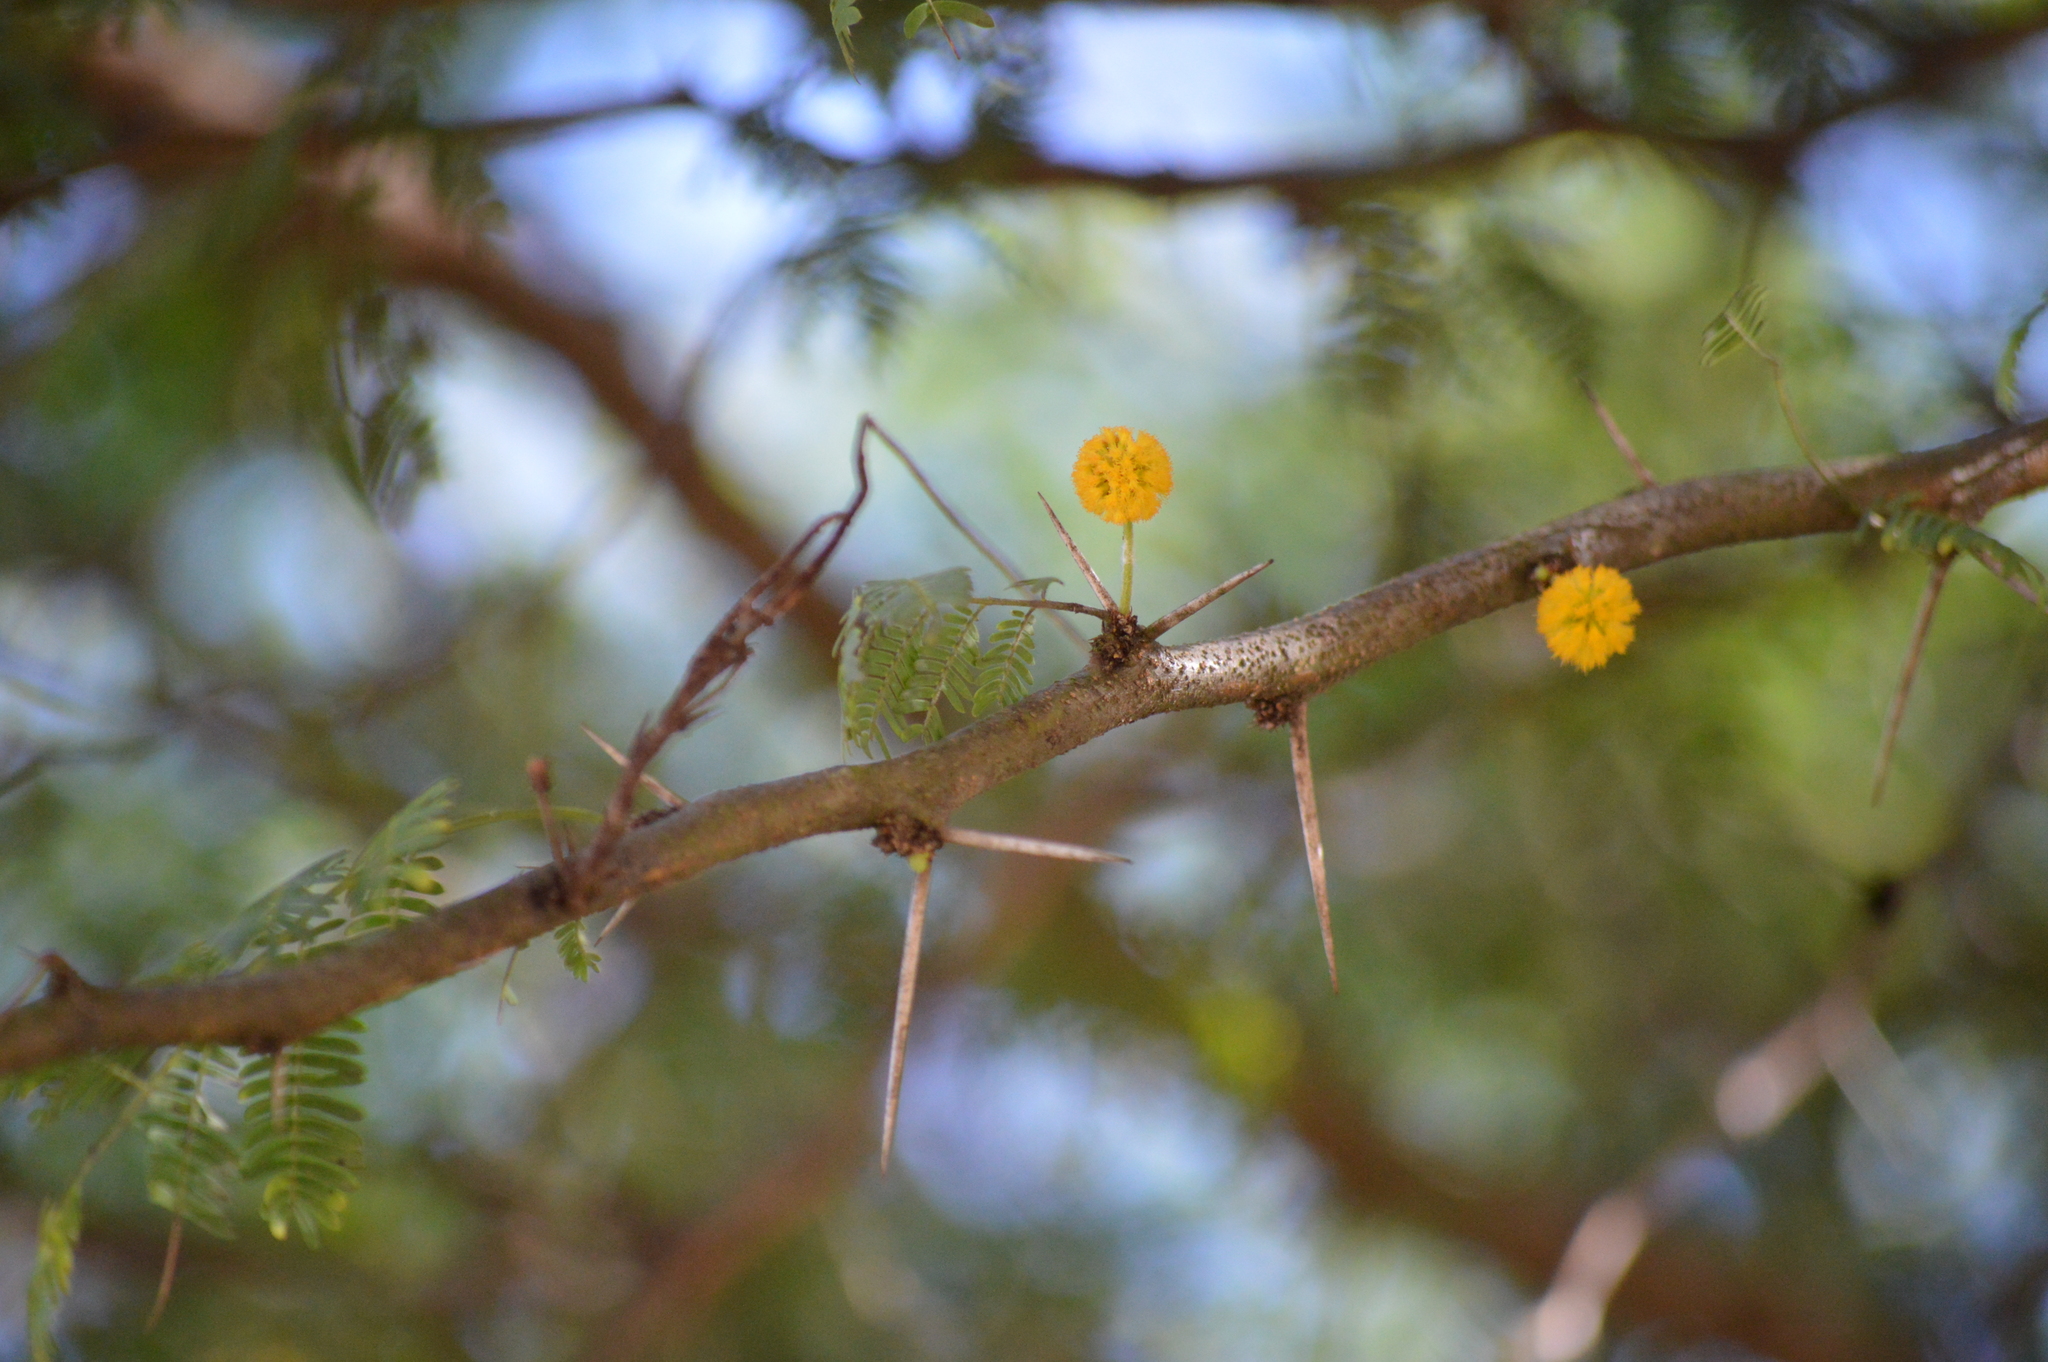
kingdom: Plantae
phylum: Tracheophyta
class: Magnoliopsida
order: Fabales
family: Fabaceae
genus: Vachellia
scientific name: Vachellia farnesiana
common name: Sweet acacia
